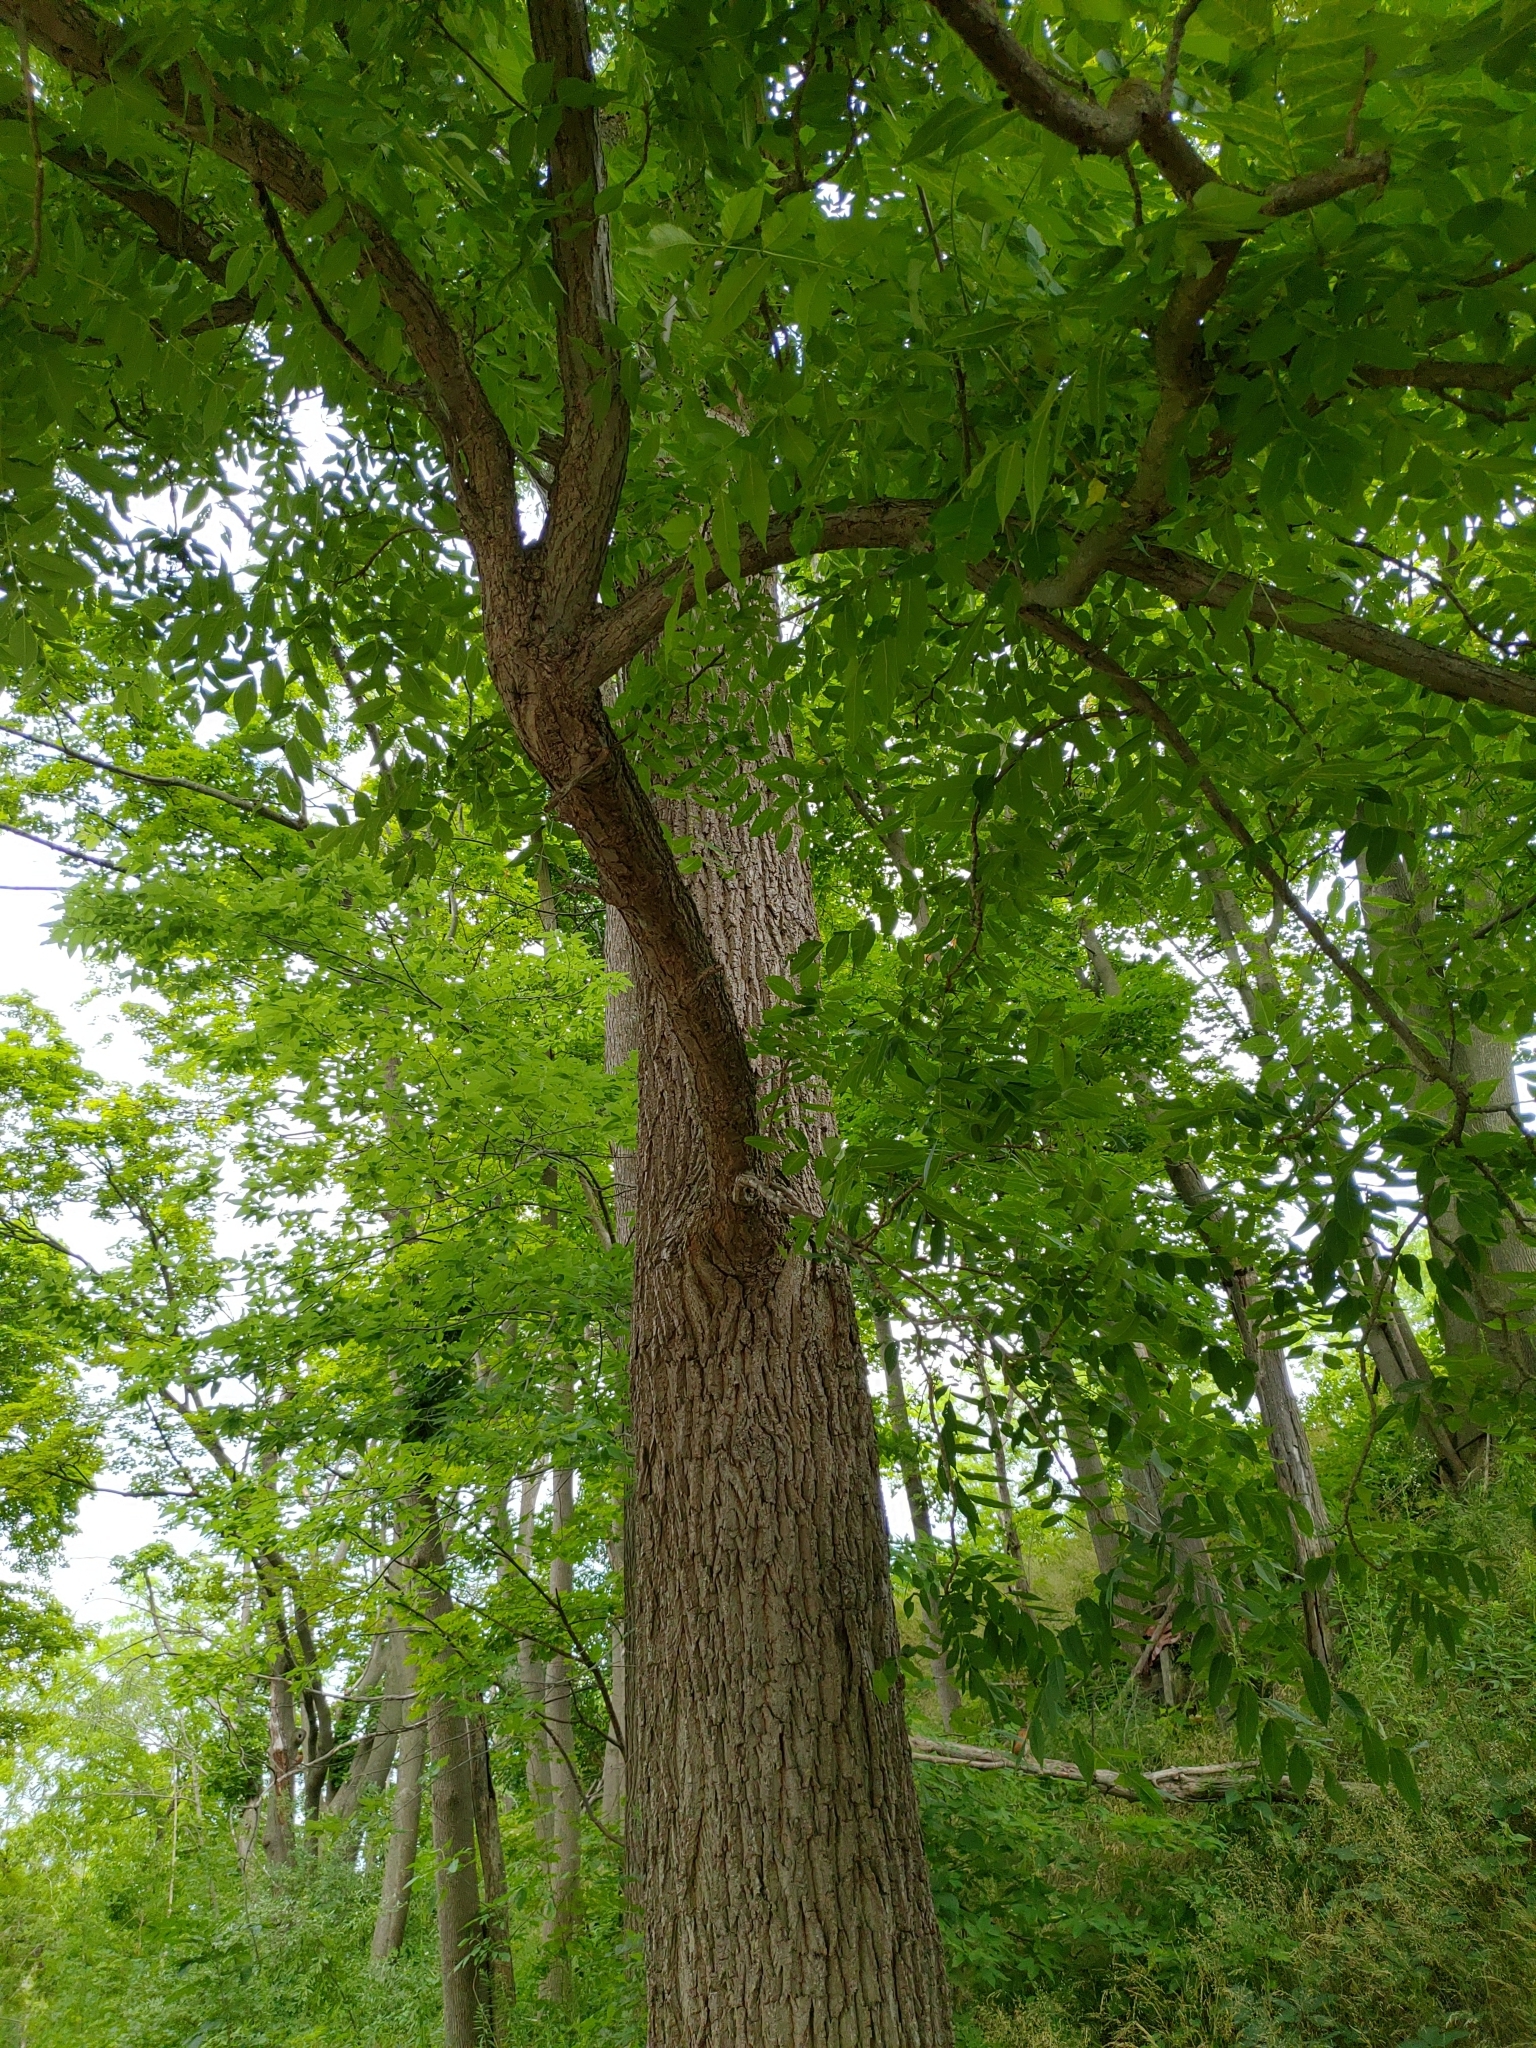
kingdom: Plantae
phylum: Tracheophyta
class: Magnoliopsida
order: Fagales
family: Juglandaceae
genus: Juglans
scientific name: Juglans nigra
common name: Black walnut
